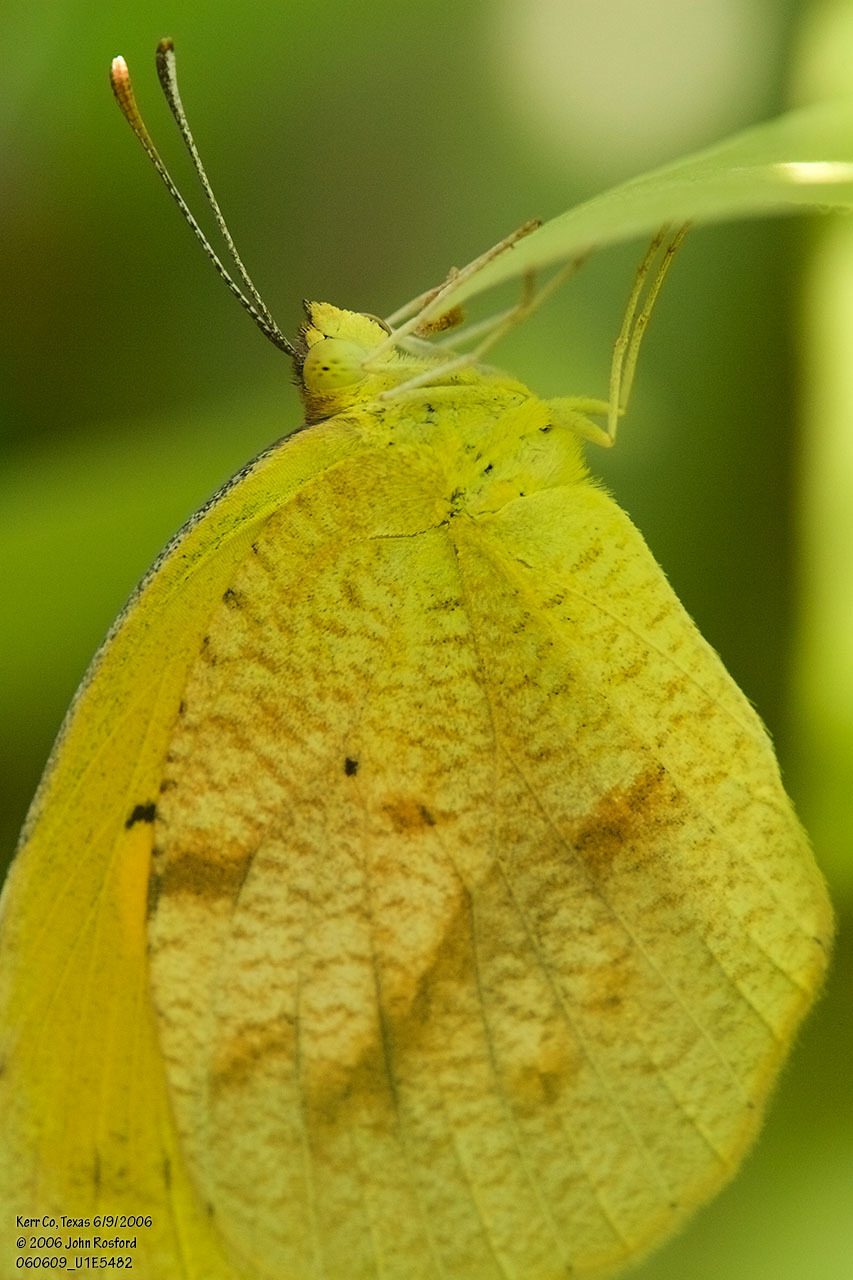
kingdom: Animalia
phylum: Arthropoda
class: Insecta
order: Lepidoptera
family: Pieridae
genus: Abaeis
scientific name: Abaeis nicippe
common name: Sleepy orange
